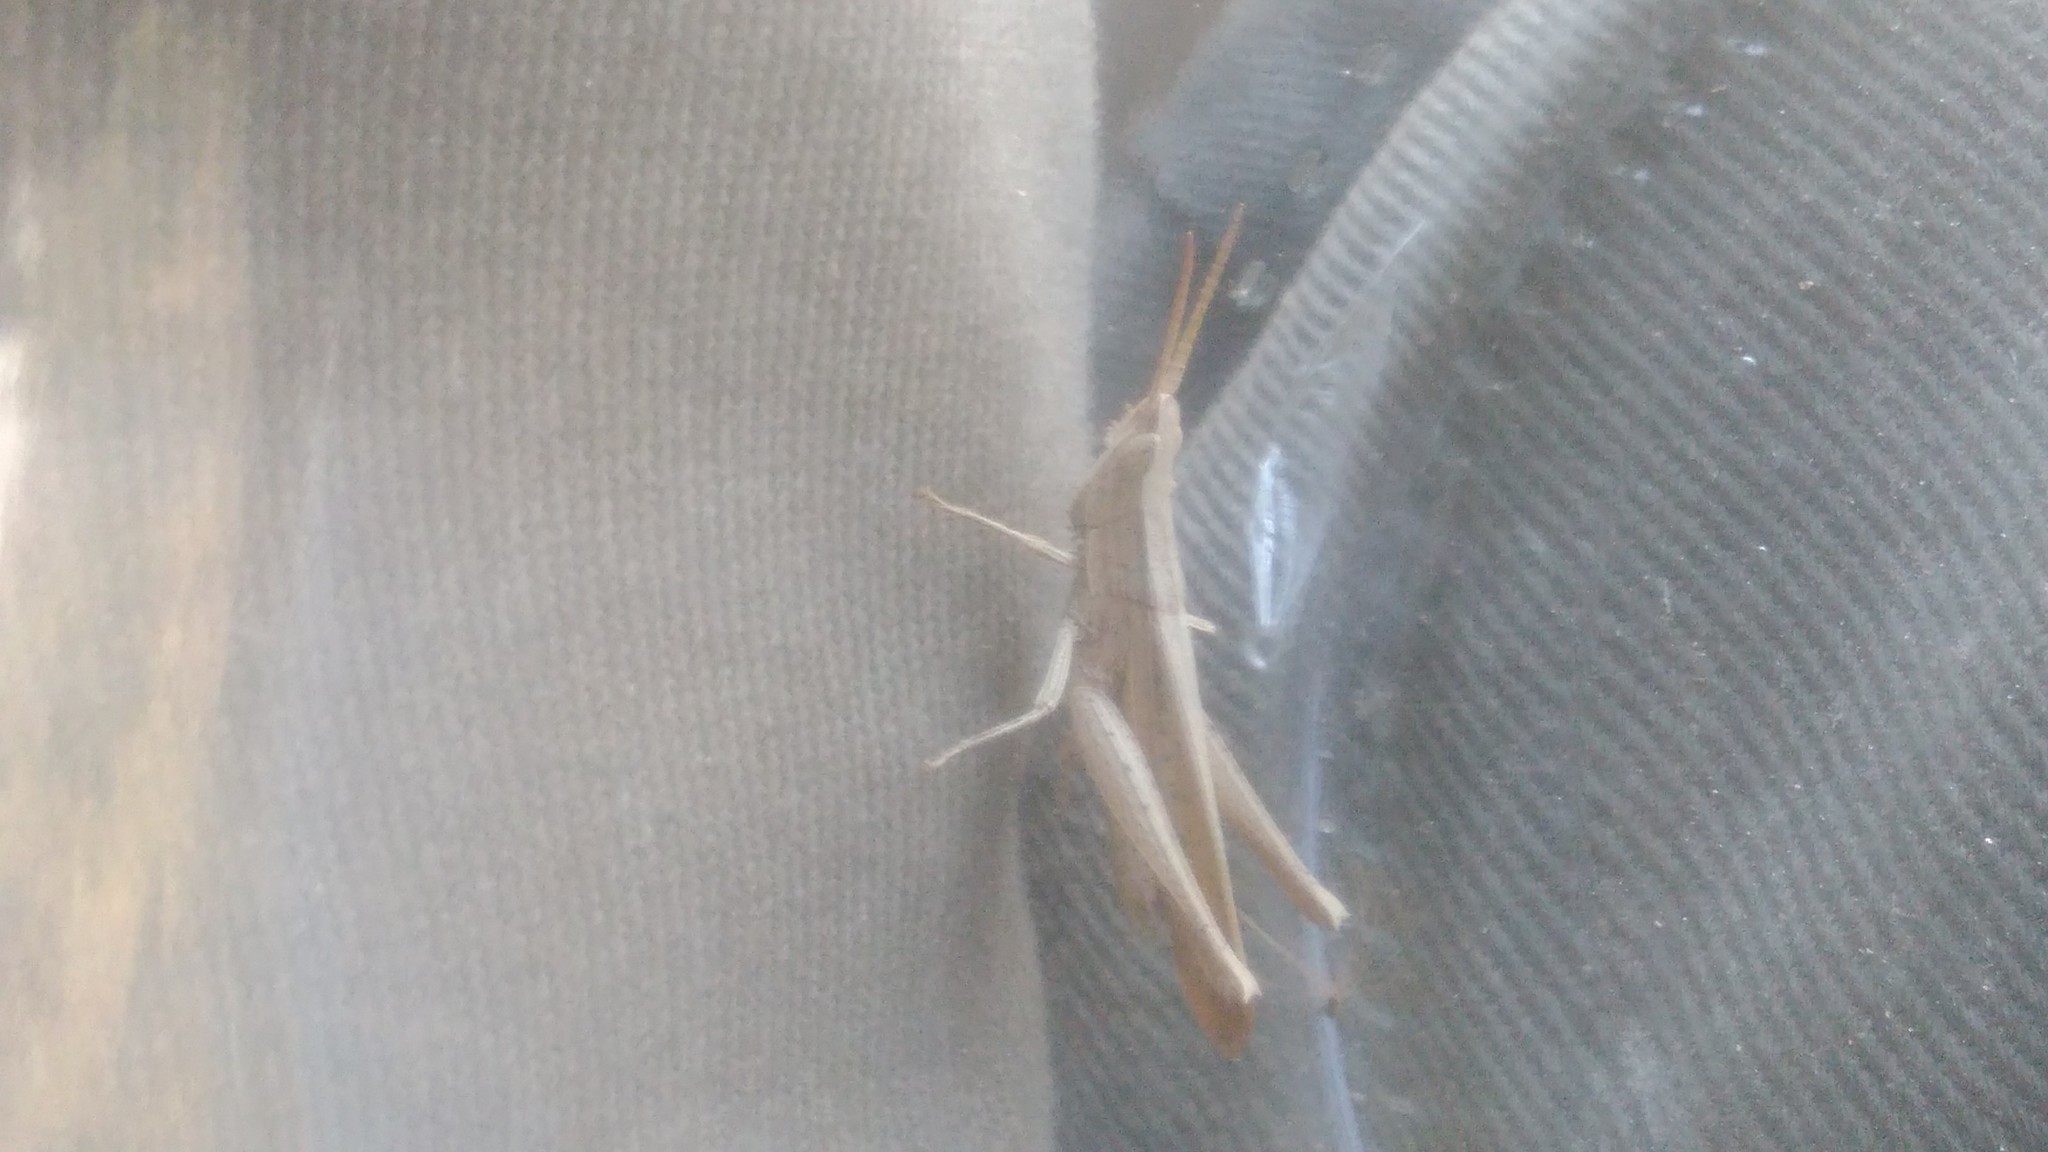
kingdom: Animalia
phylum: Arthropoda
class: Insecta
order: Orthoptera
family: Acrididae
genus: Laplatacris
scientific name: Laplatacris dispar
